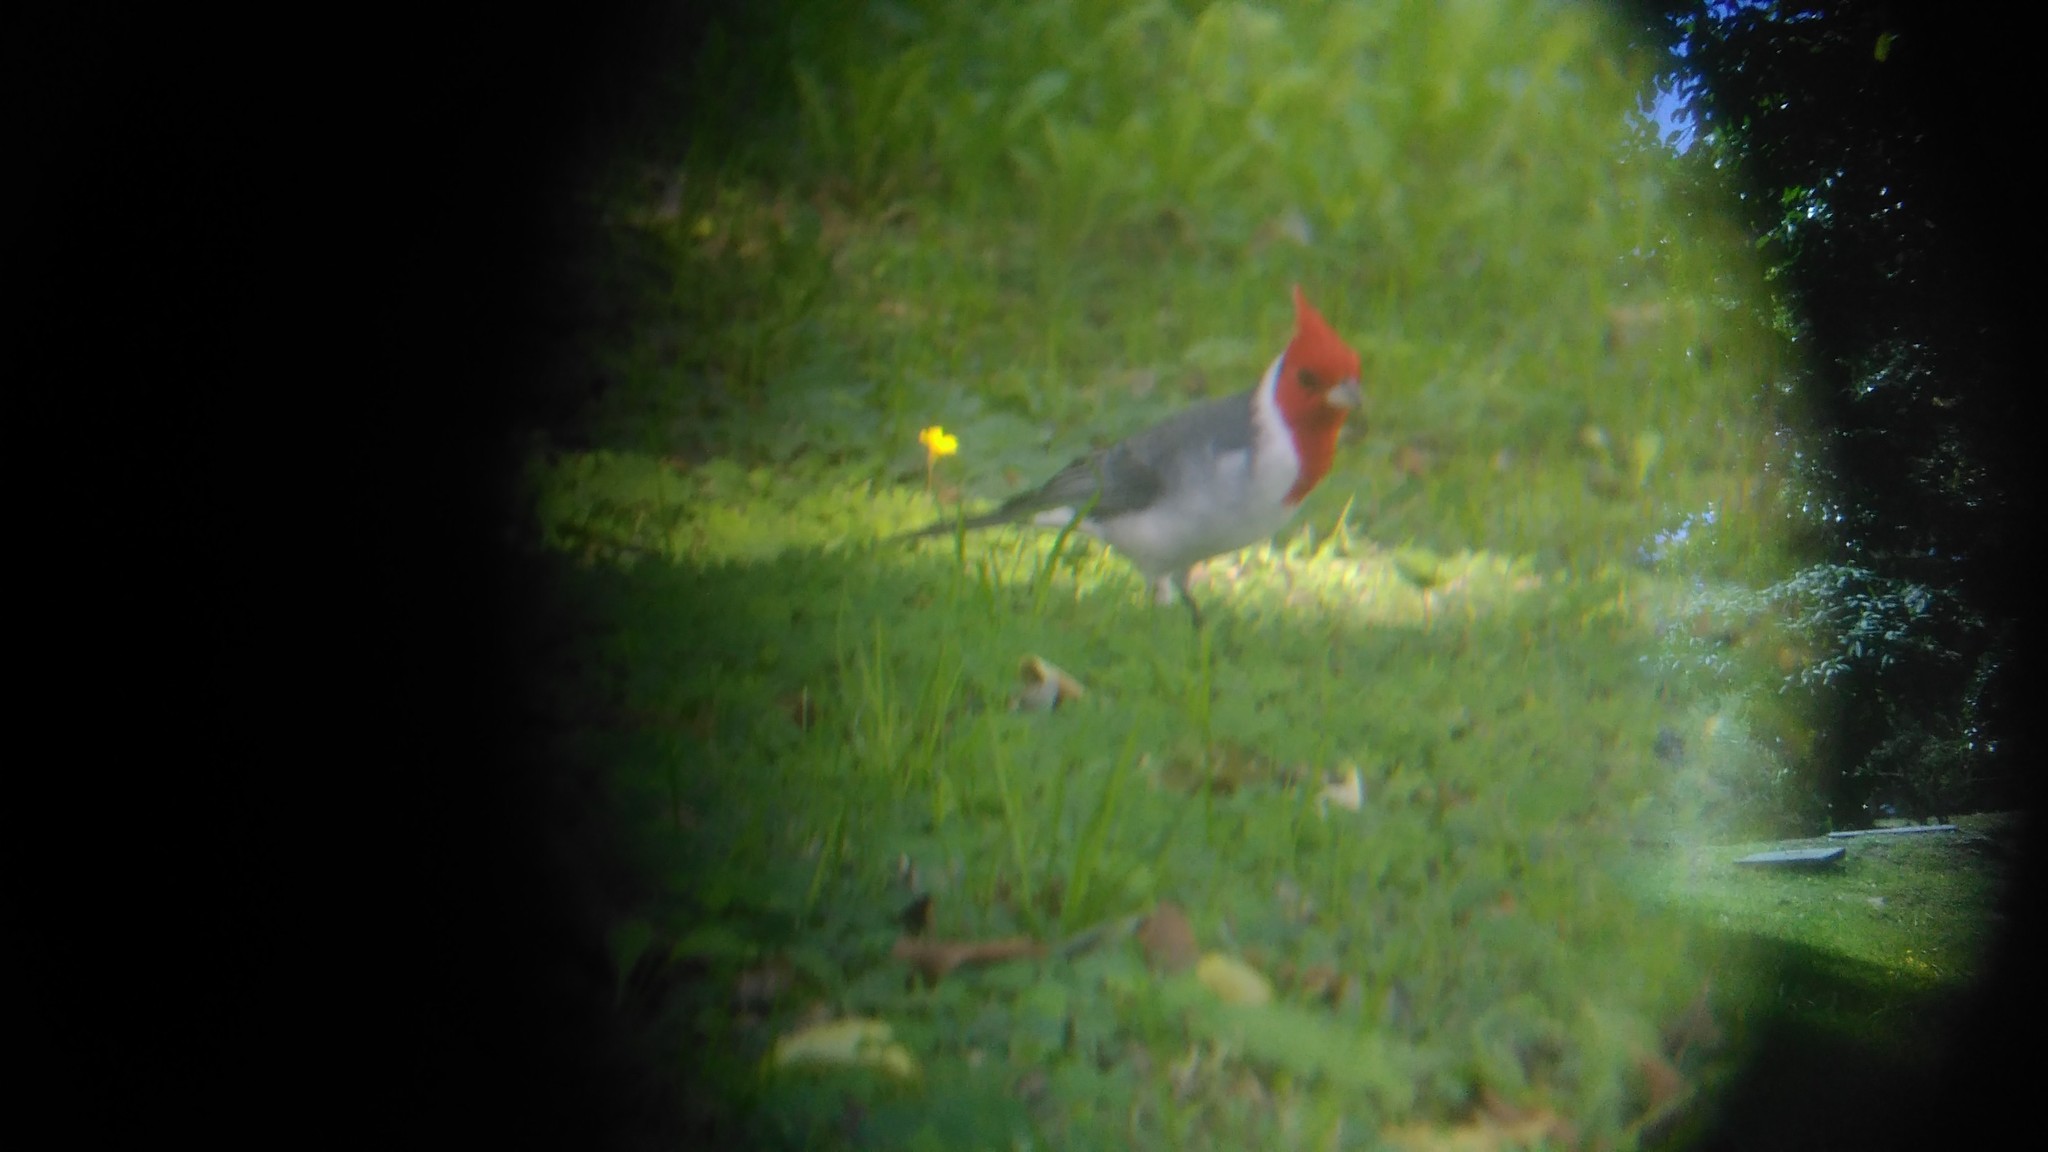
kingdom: Animalia
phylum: Chordata
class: Aves
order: Passeriformes
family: Thraupidae
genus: Paroaria
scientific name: Paroaria coronata
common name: Red-crested cardinal
